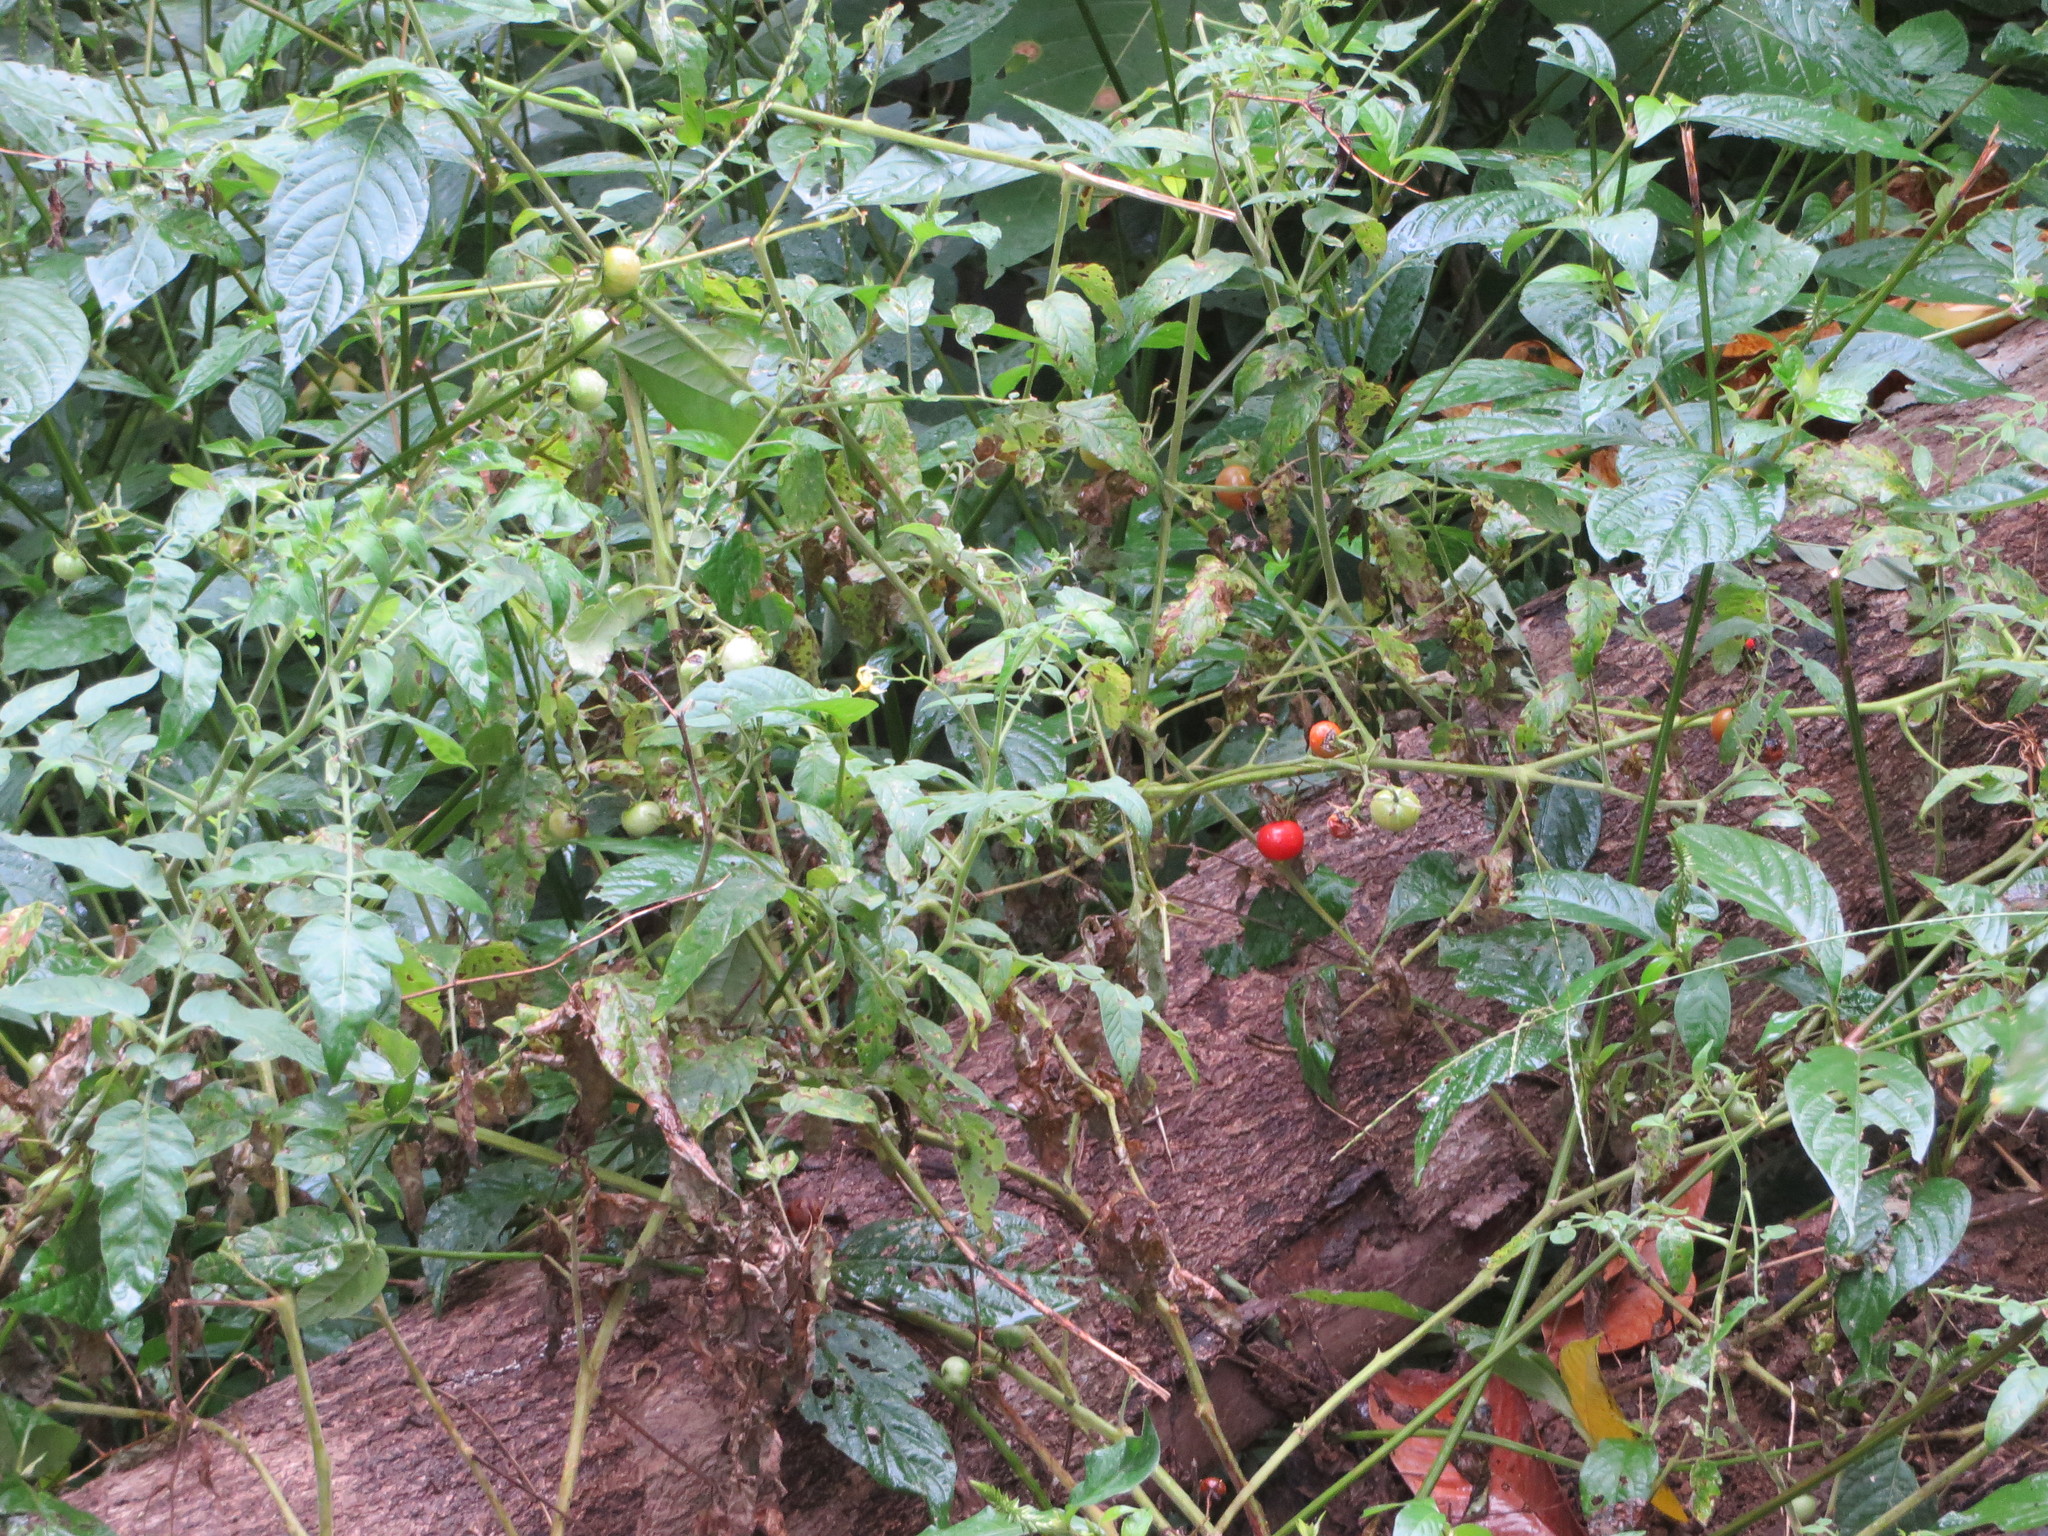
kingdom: Plantae
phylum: Tracheophyta
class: Magnoliopsida
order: Solanales
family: Solanaceae
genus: Solanum
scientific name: Solanum lycopersicum
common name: Garden tomato
